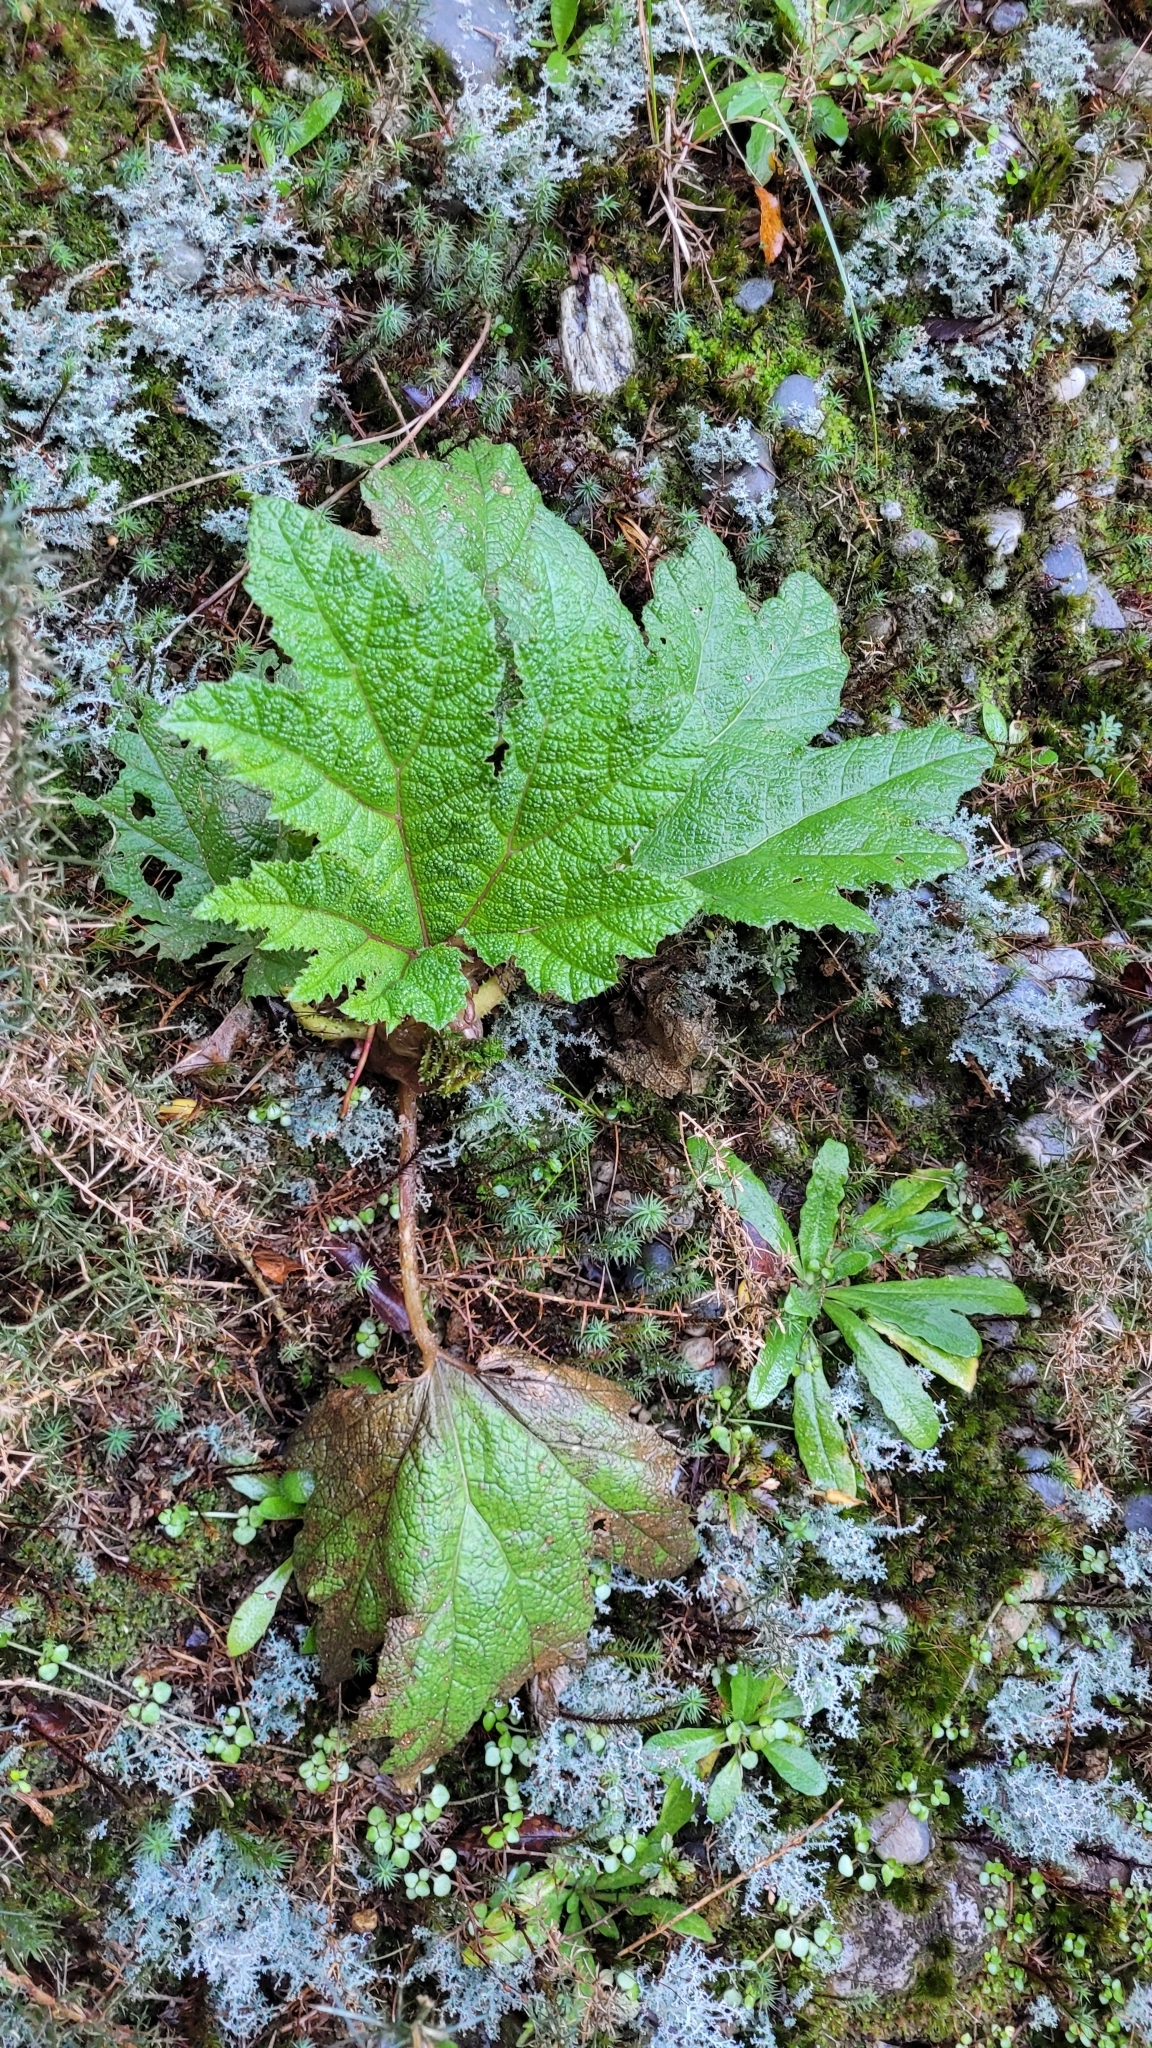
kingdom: Plantae
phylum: Tracheophyta
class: Magnoliopsida
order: Gunnerales
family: Gunneraceae
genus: Gunnera
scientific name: Gunnera tinctoria
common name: Giant-rhubarb
